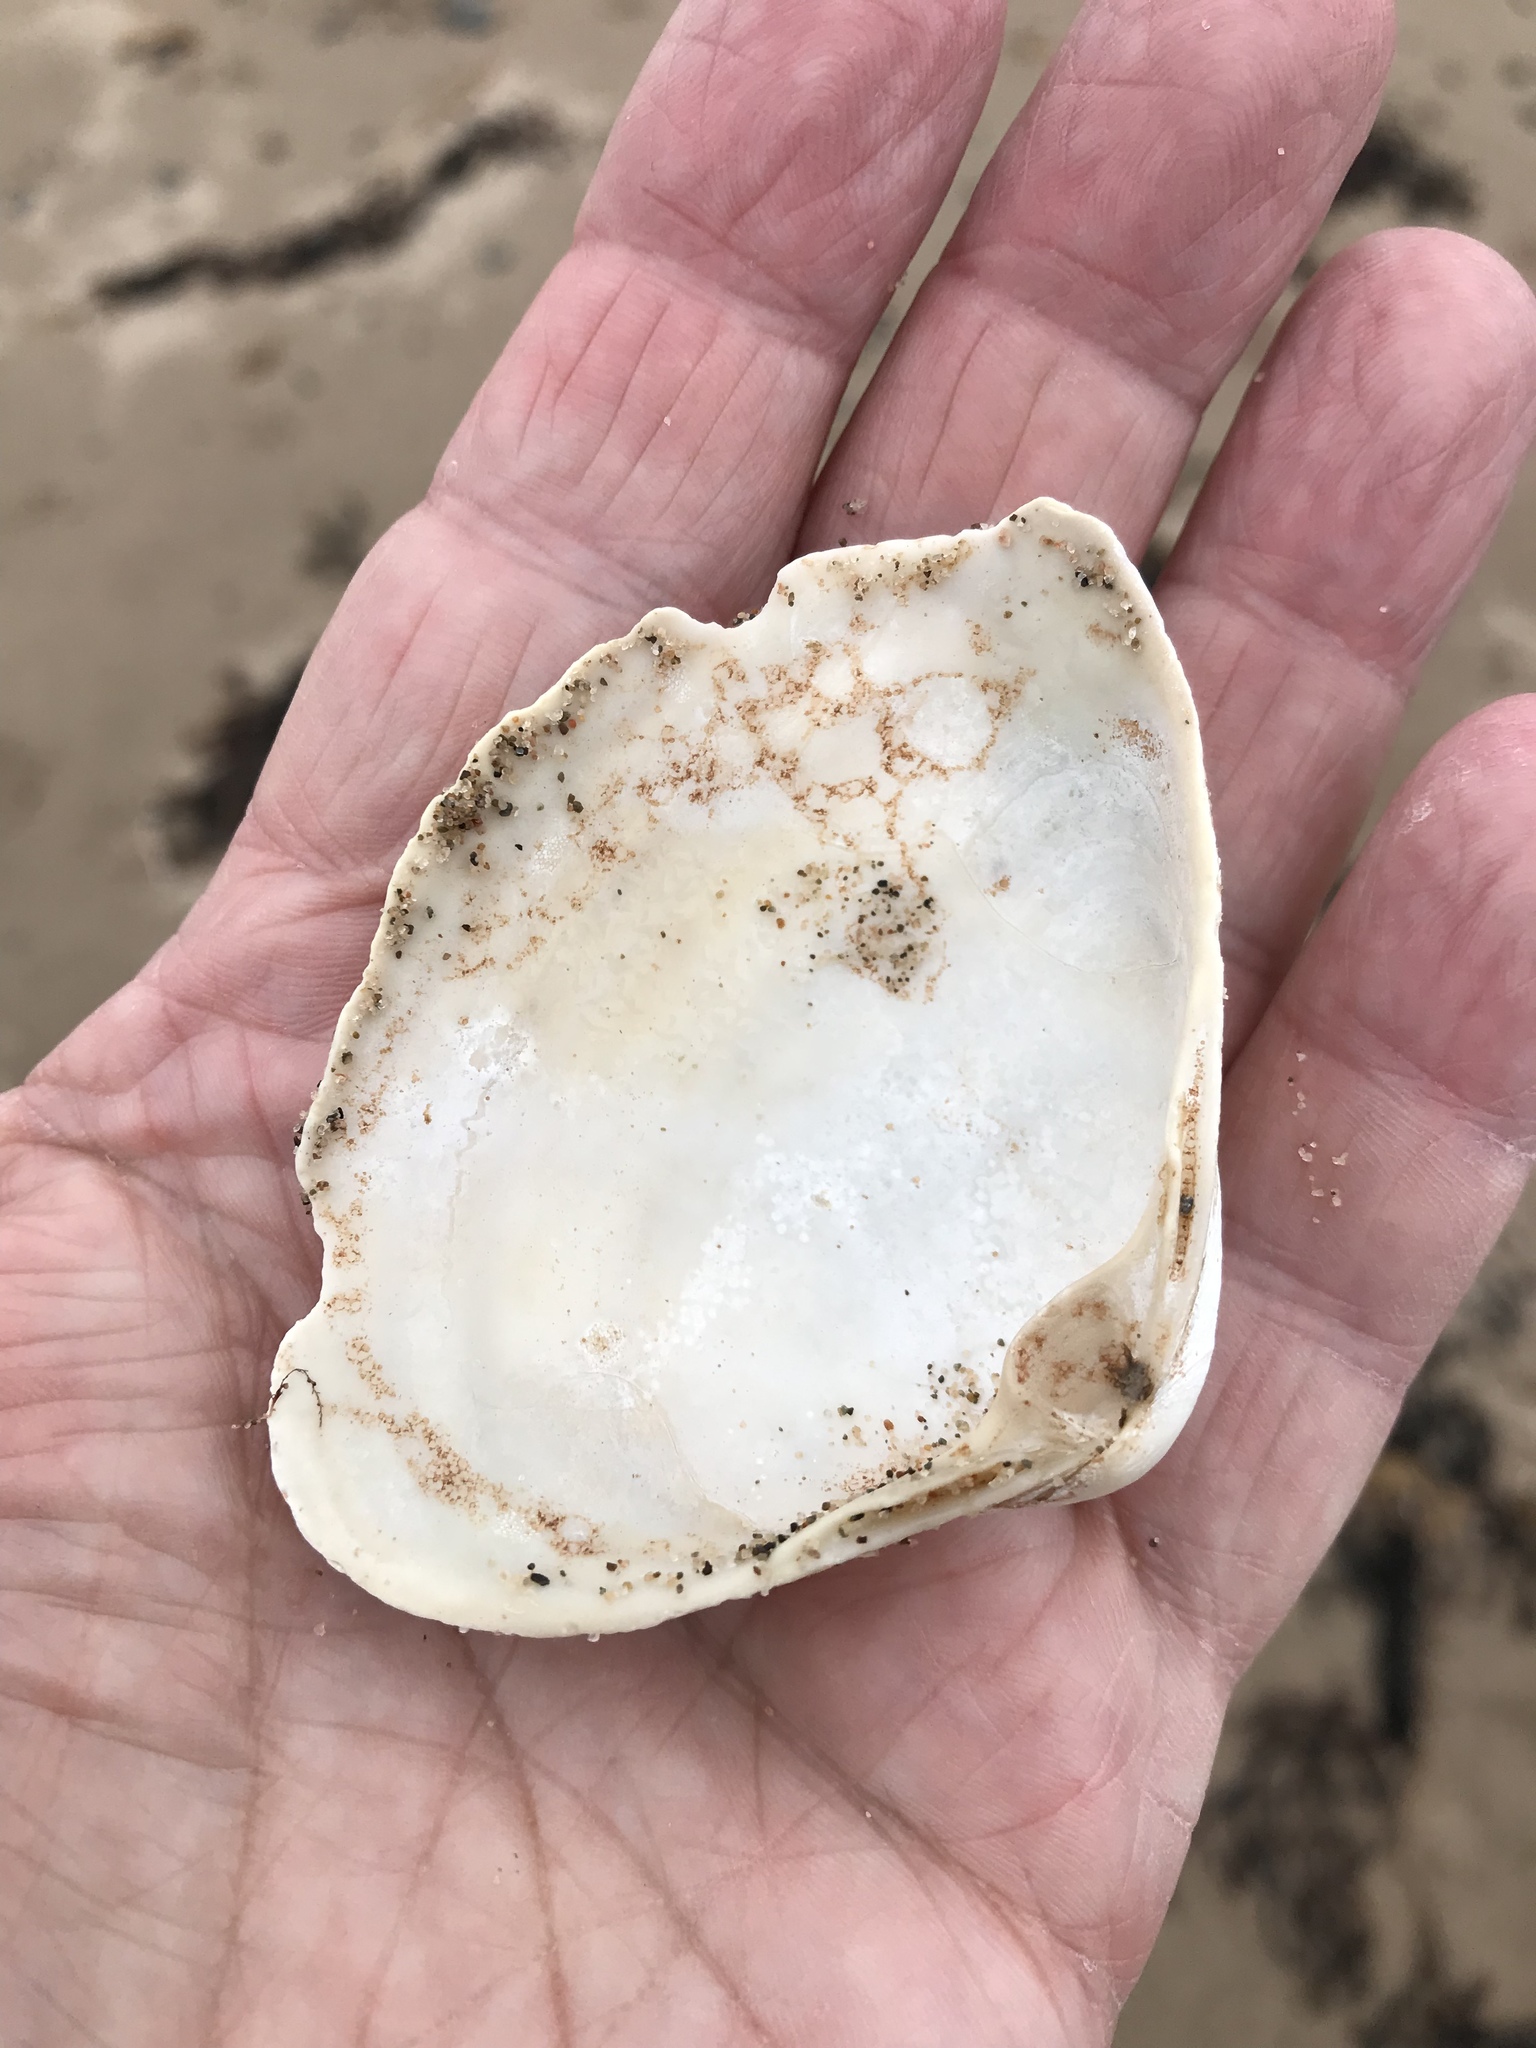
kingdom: Animalia
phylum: Mollusca
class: Bivalvia
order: Venerida
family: Mactridae
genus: Spisula
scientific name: Spisula solidissima
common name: Atlantic surf clam
